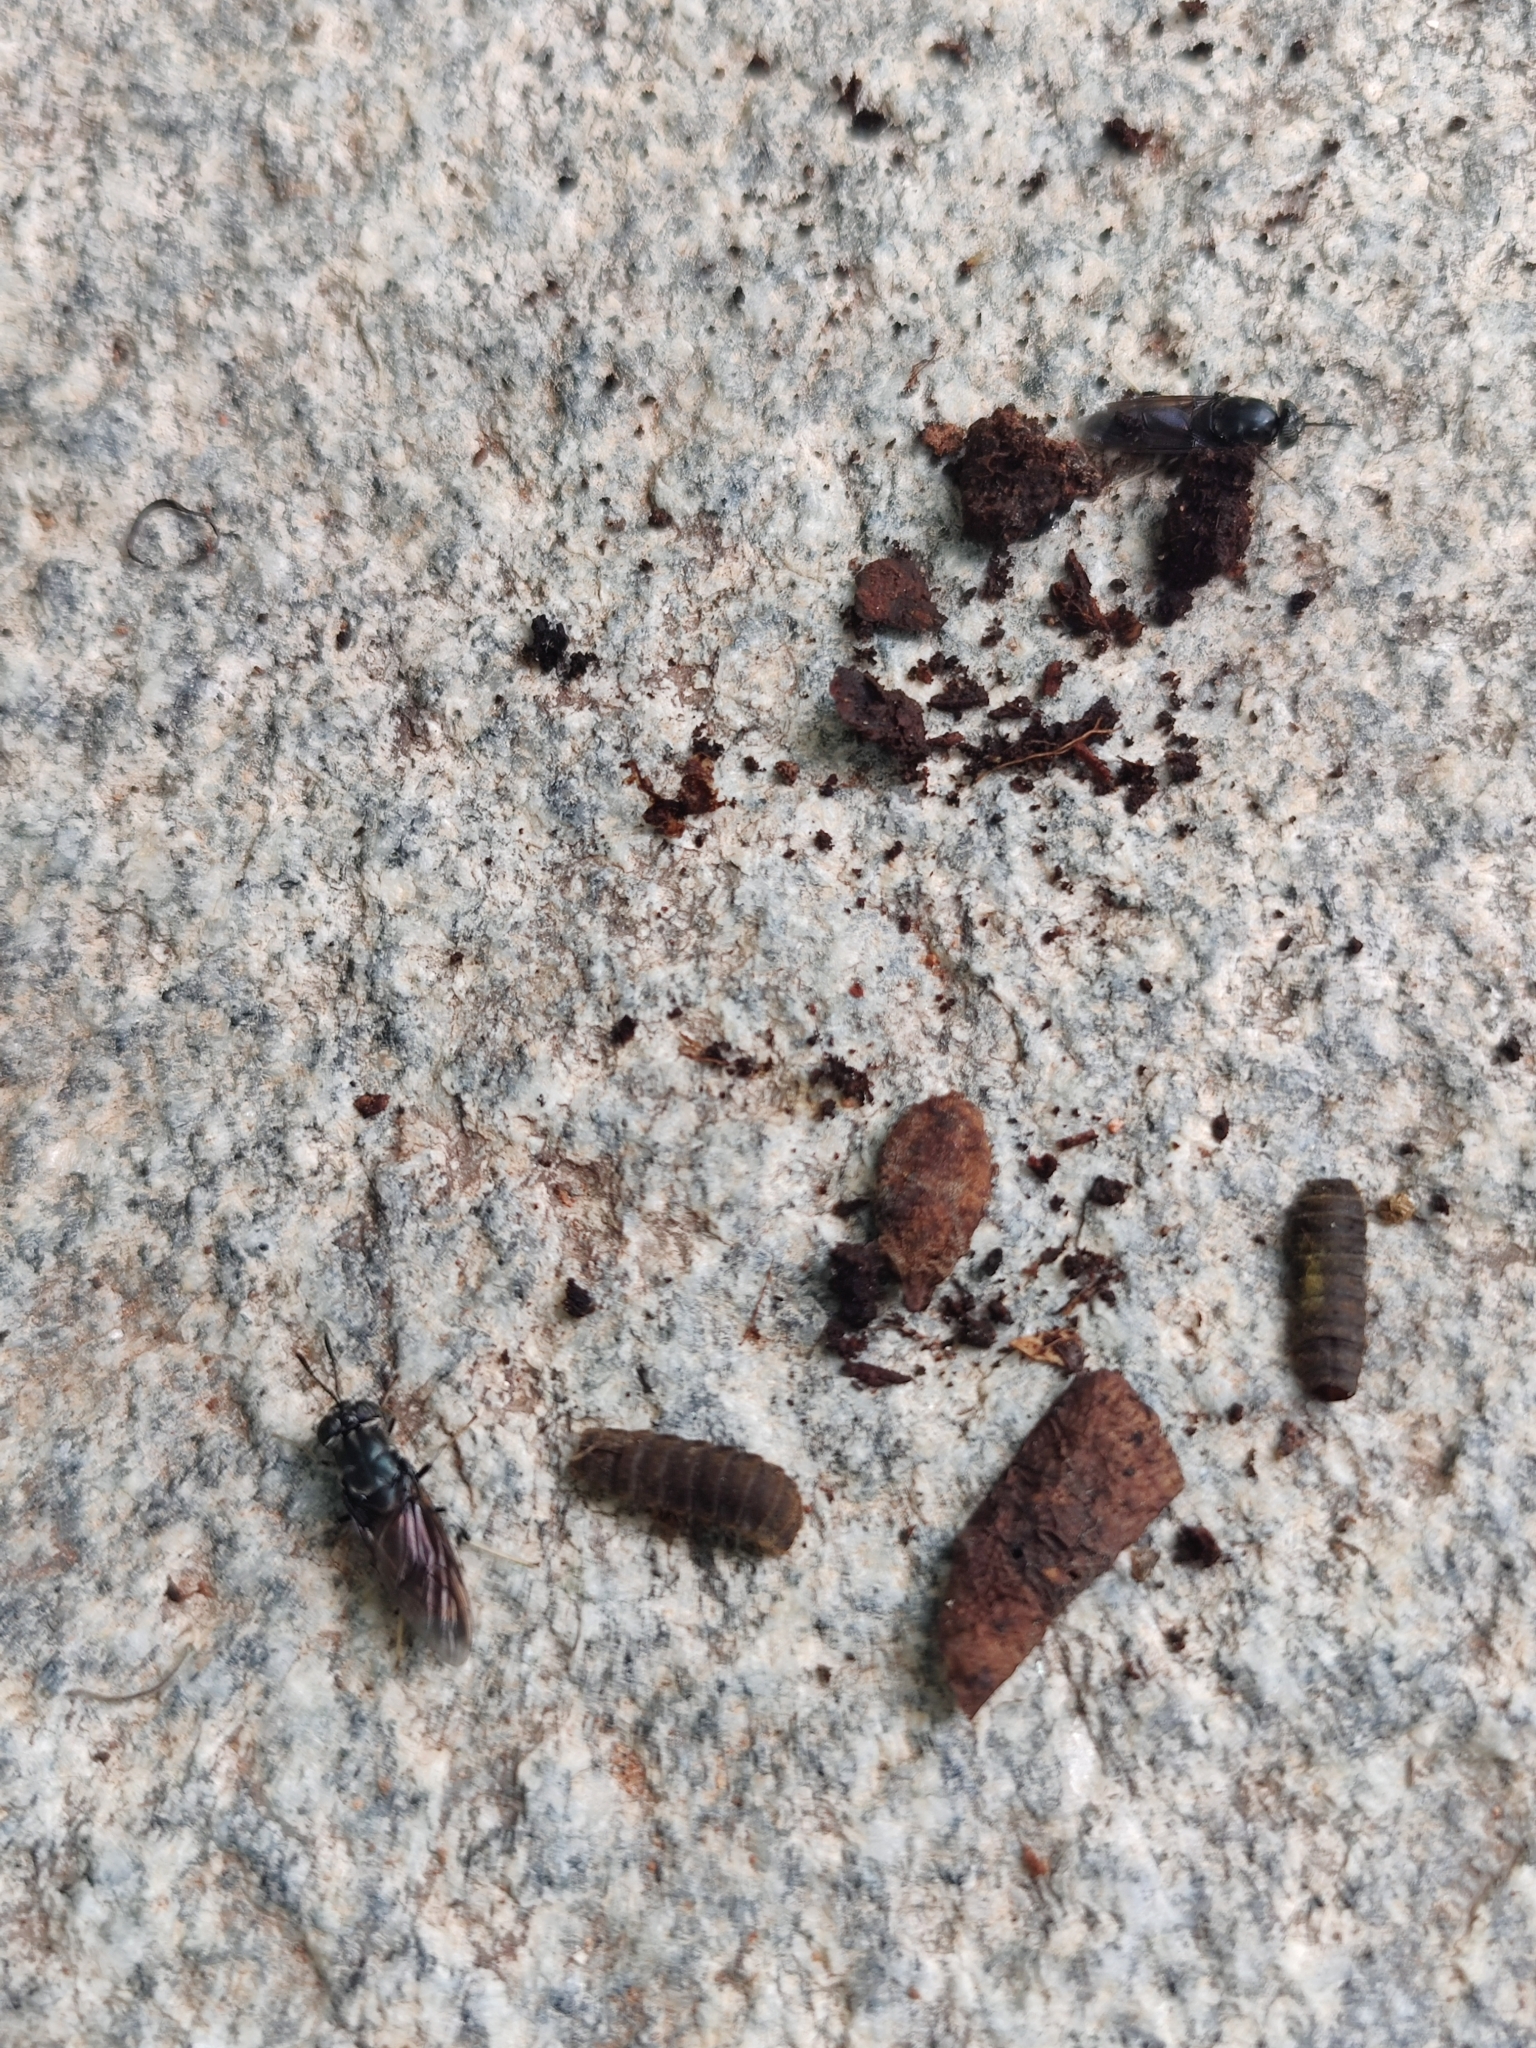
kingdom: Animalia
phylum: Arthropoda
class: Insecta
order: Diptera
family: Stratiomyidae
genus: Hermetia
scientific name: Hermetia illucens
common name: Black soldier fly
